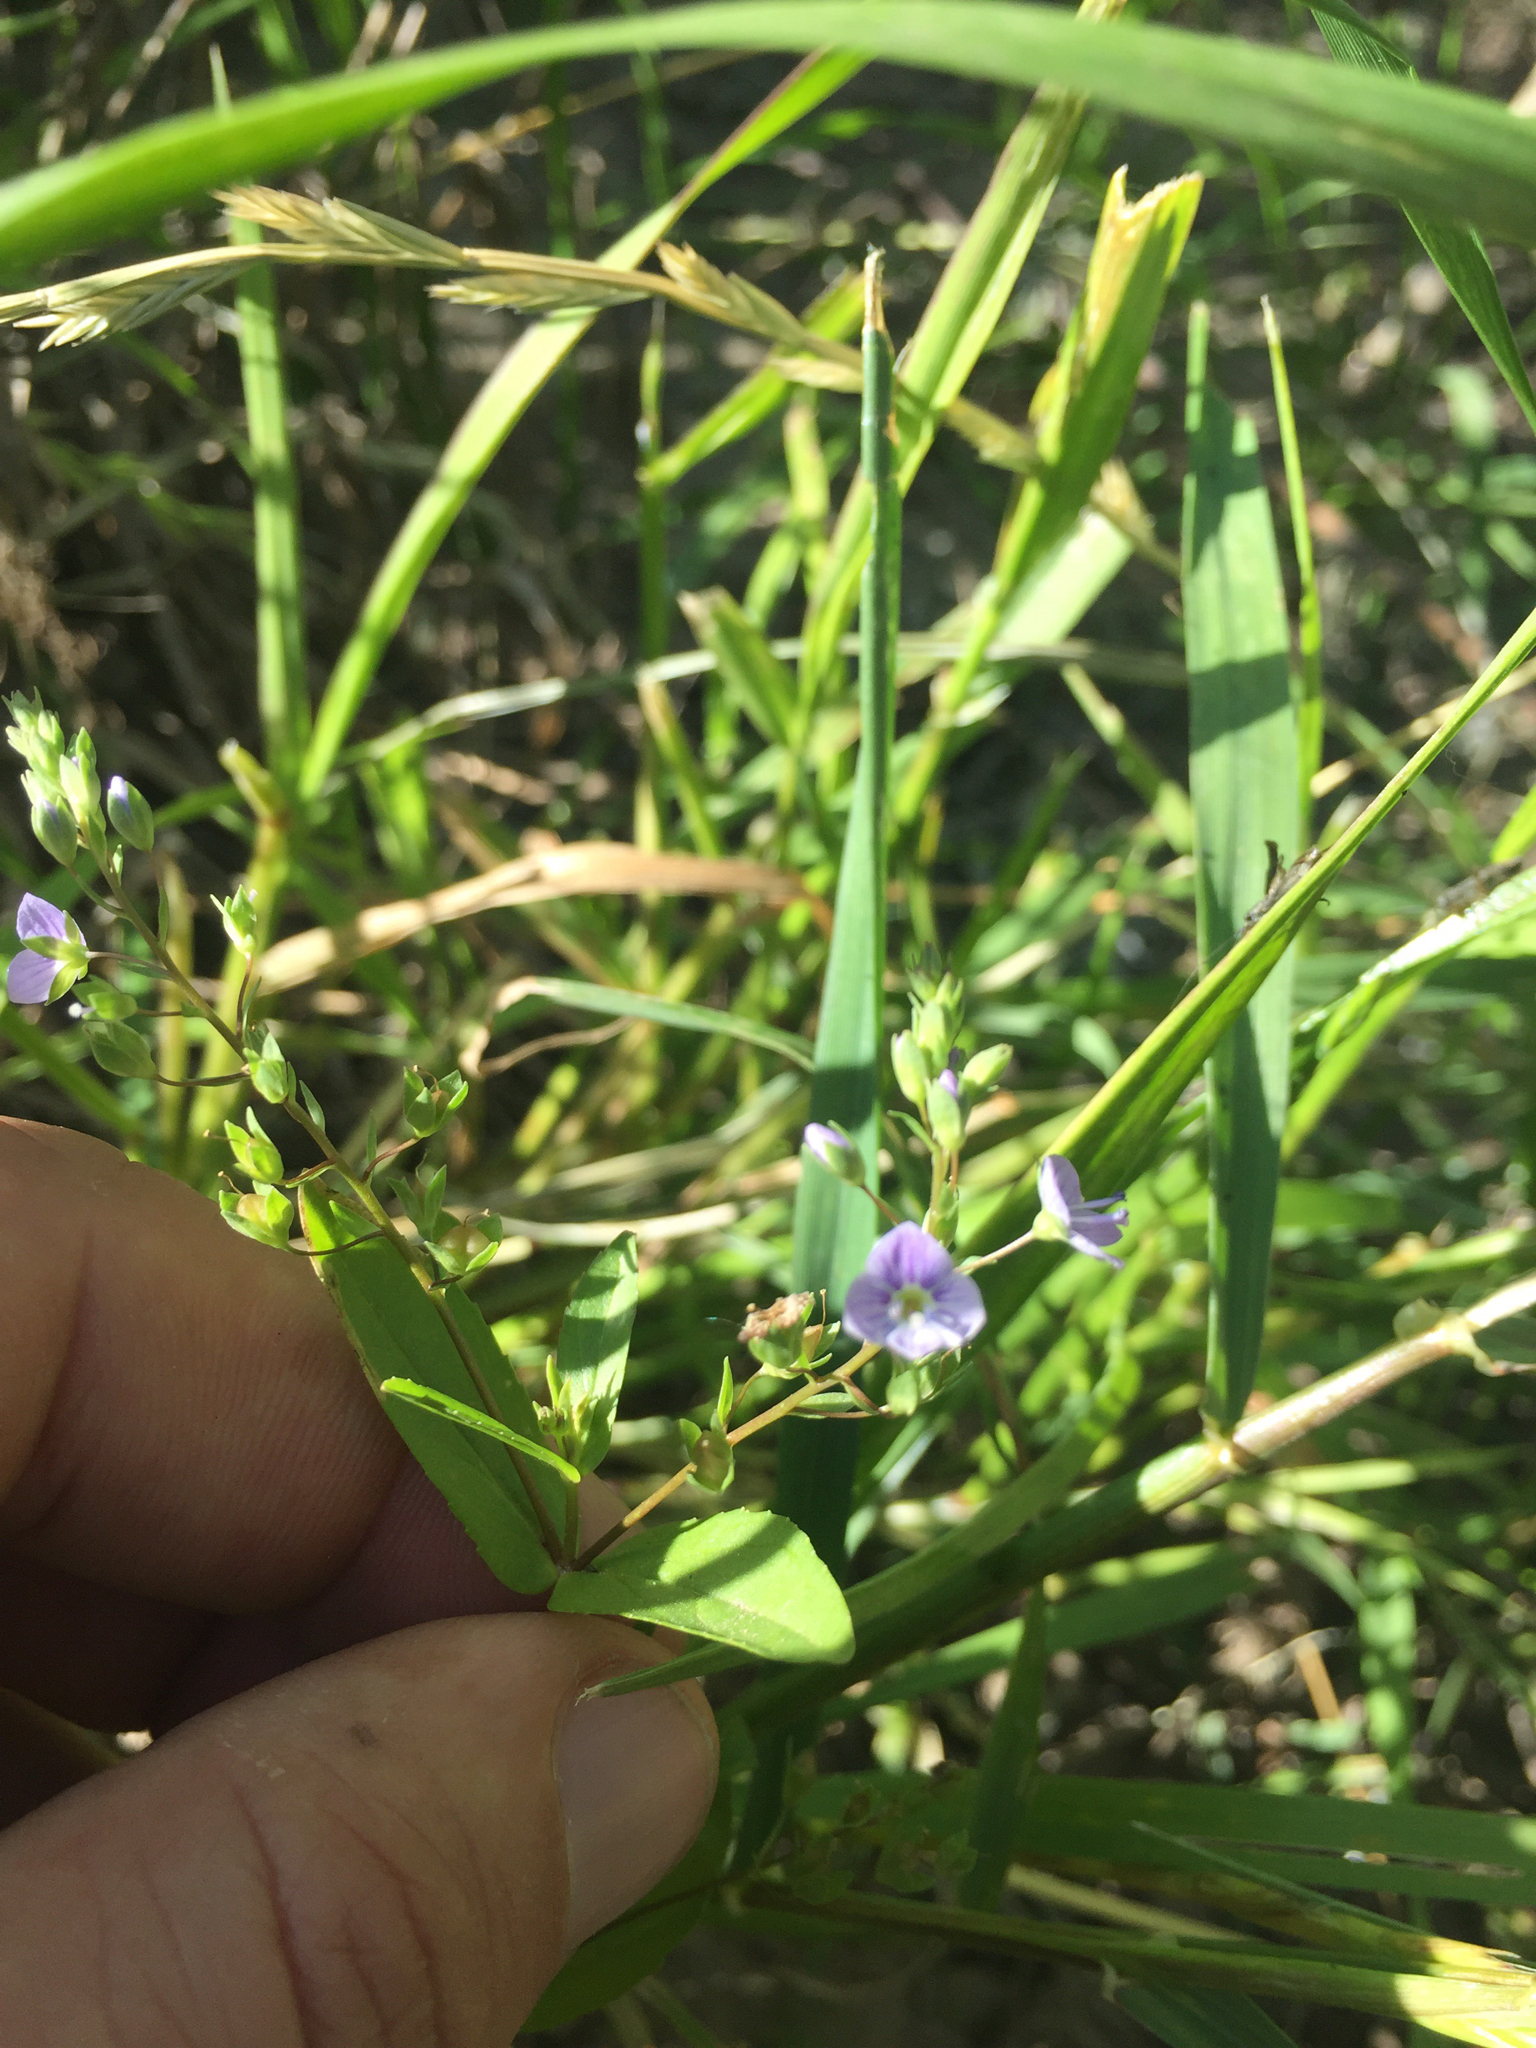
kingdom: Plantae
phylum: Tracheophyta
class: Magnoliopsida
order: Lamiales
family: Plantaginaceae
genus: Veronica
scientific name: Veronica anagallis-aquatica
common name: Water speedwell
